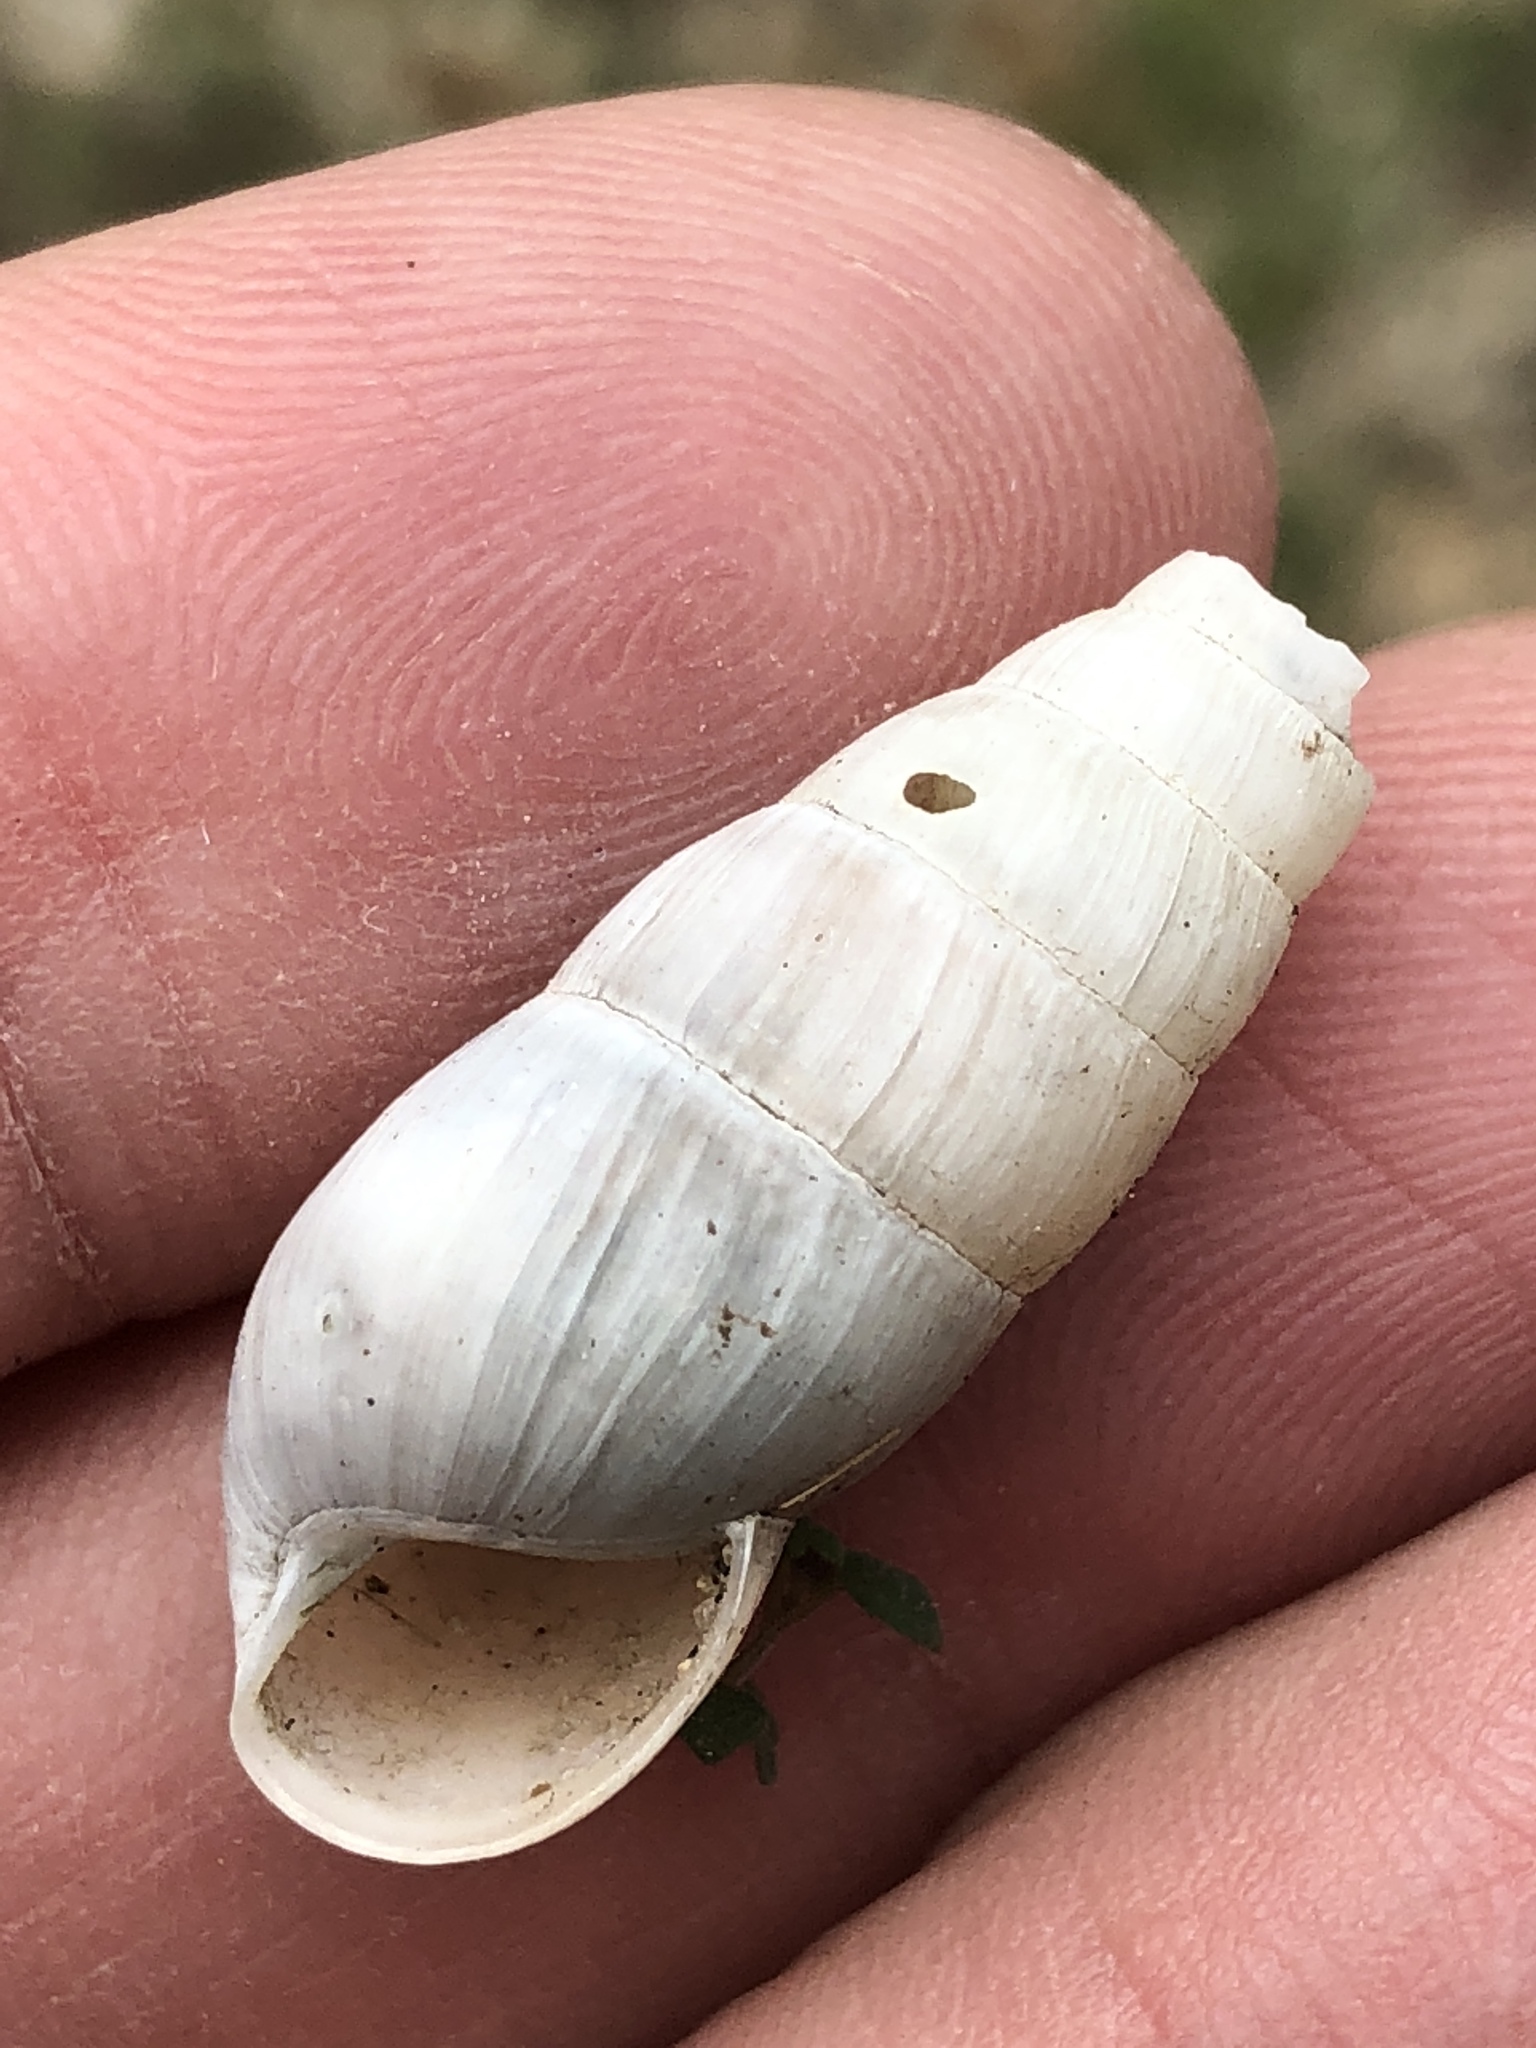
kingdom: Animalia
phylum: Mollusca
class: Gastropoda
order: Stylommatophora
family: Achatinidae
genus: Rumina
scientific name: Rumina decollata
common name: Decollate snail
